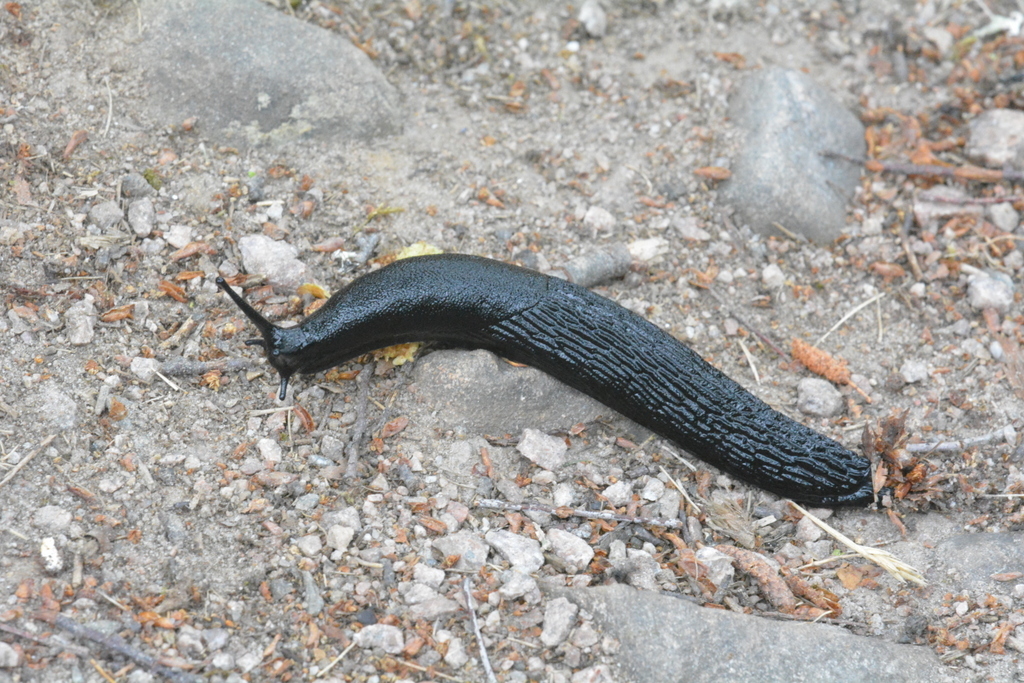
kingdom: Animalia
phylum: Mollusca
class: Gastropoda
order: Stylommatophora
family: Arionidae
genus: Arion
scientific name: Arion ater
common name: Black arion
